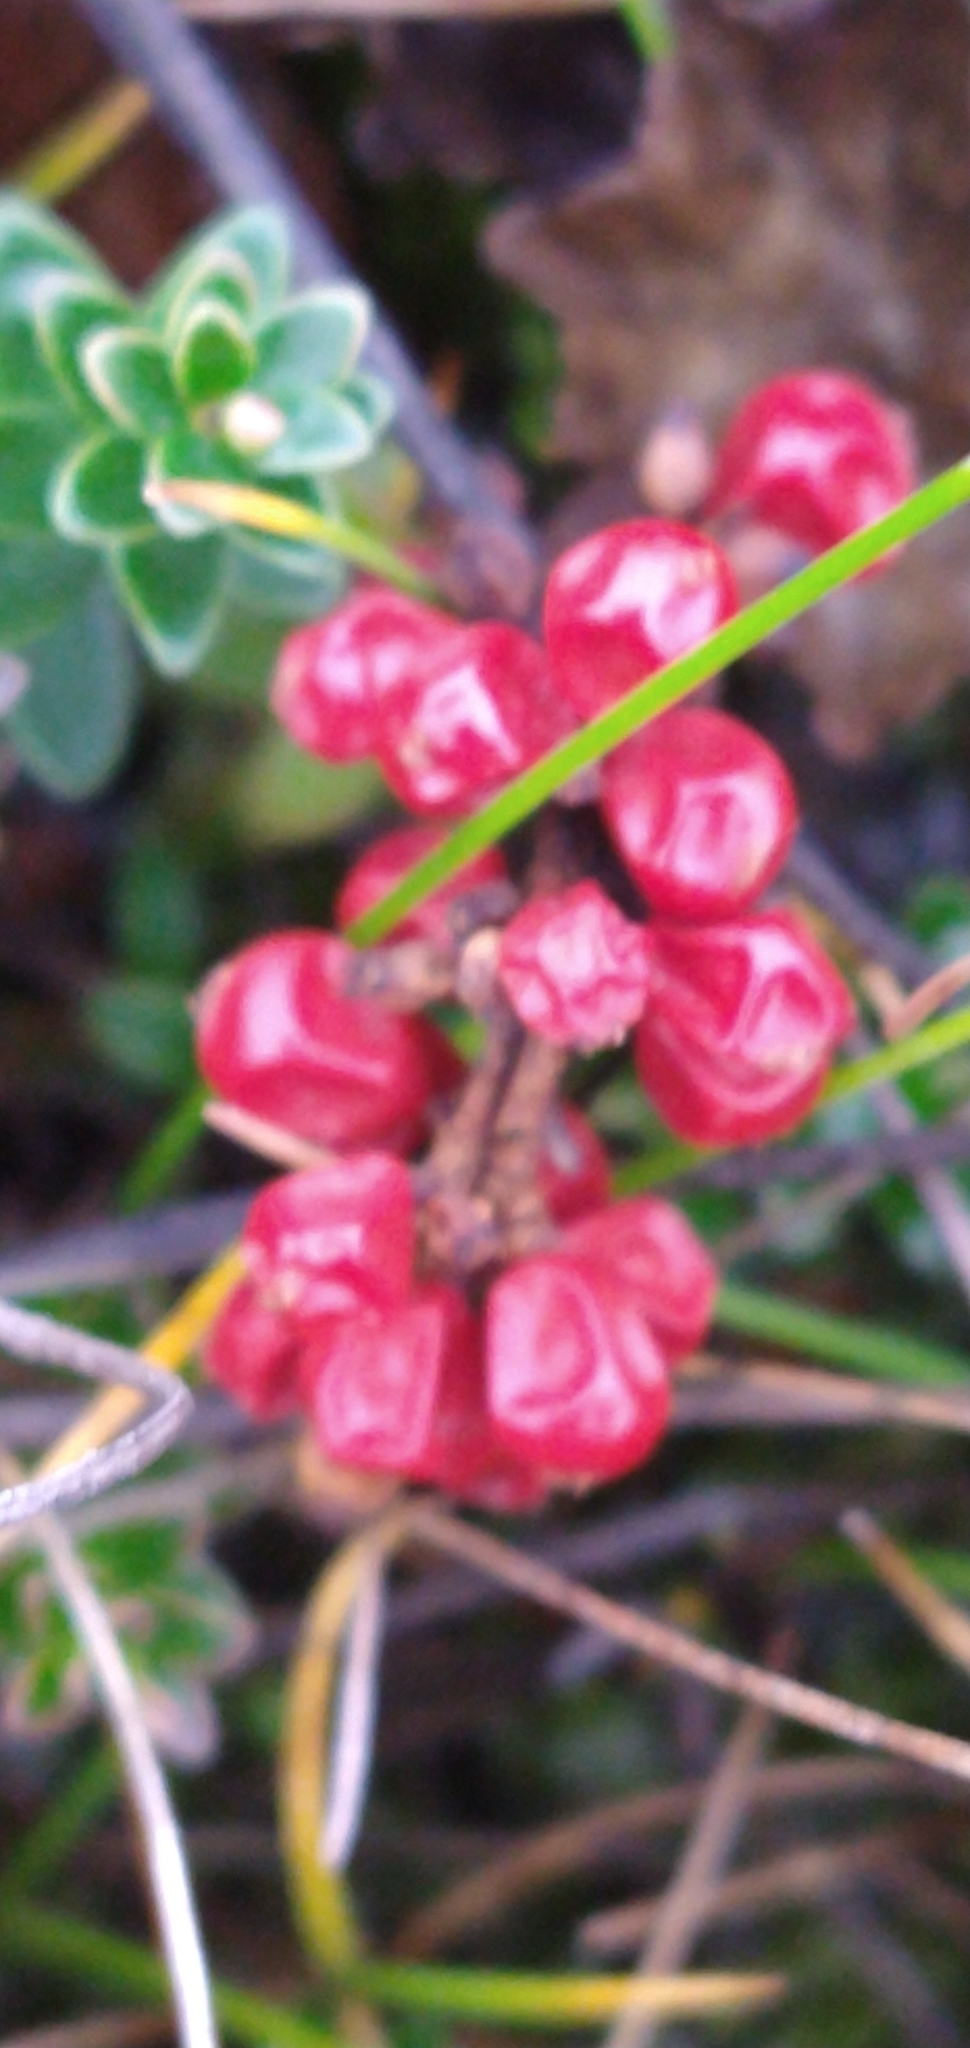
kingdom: Plantae
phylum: Tracheophyta
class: Magnoliopsida
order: Gunnerales
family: Gunneraceae
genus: Gunnera
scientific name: Gunnera magellanica
